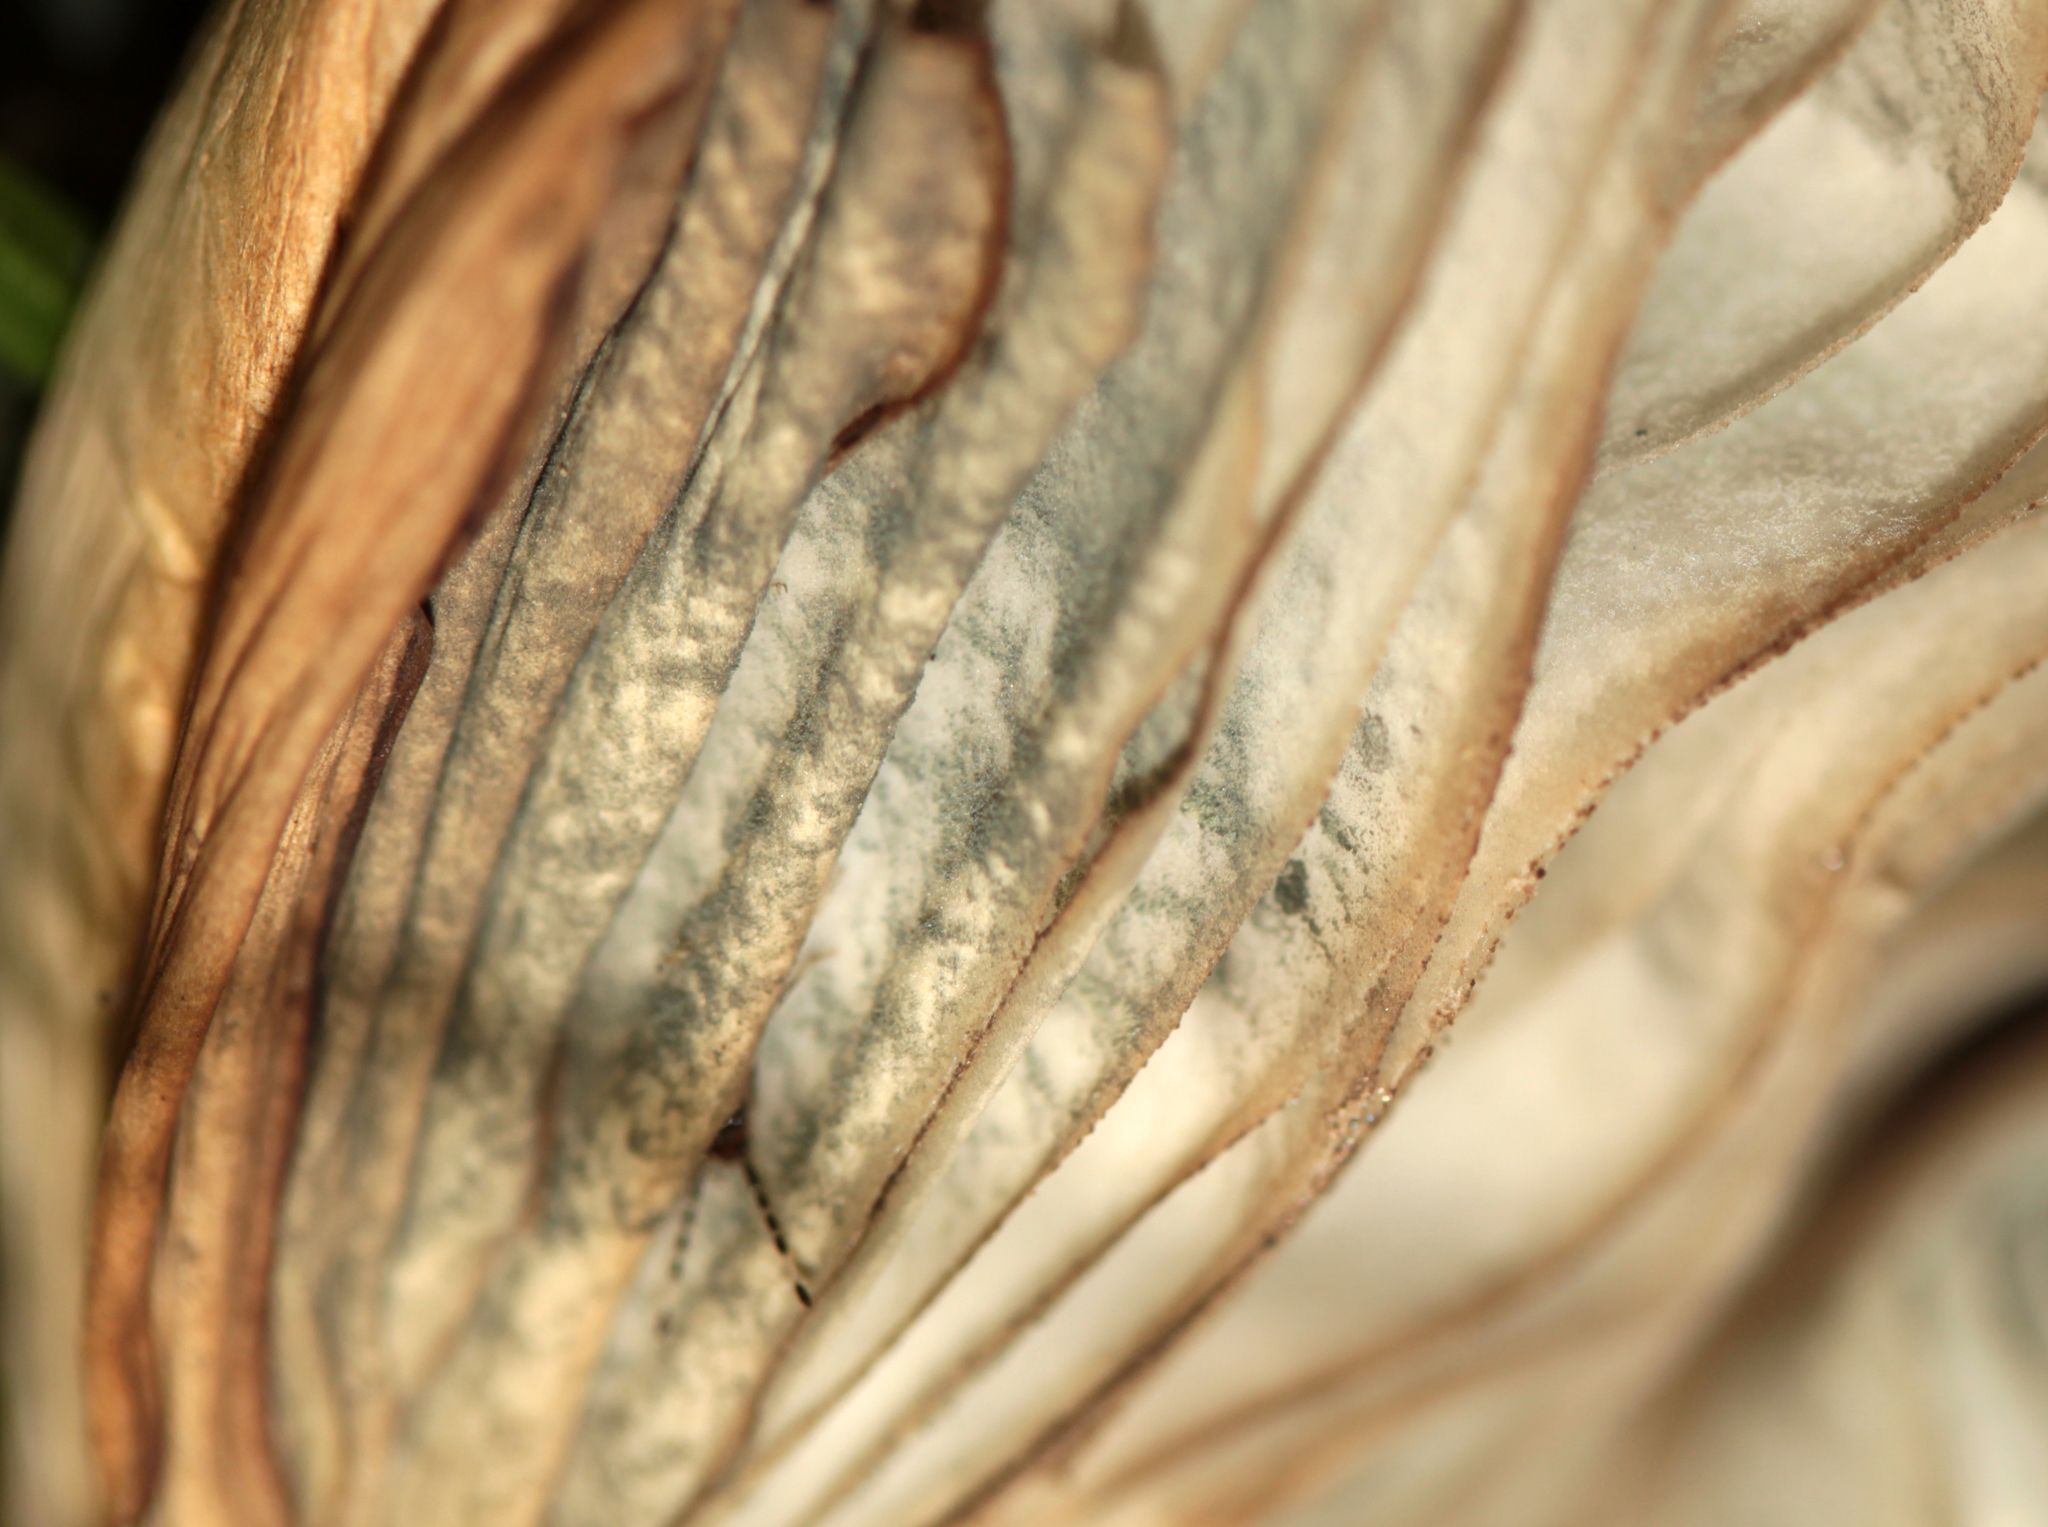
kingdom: Fungi
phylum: Basidiomycota
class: Agaricomycetes
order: Agaricales
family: Agaricaceae
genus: Chlorophyllum
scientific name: Chlorophyllum molybdites
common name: False parasol
